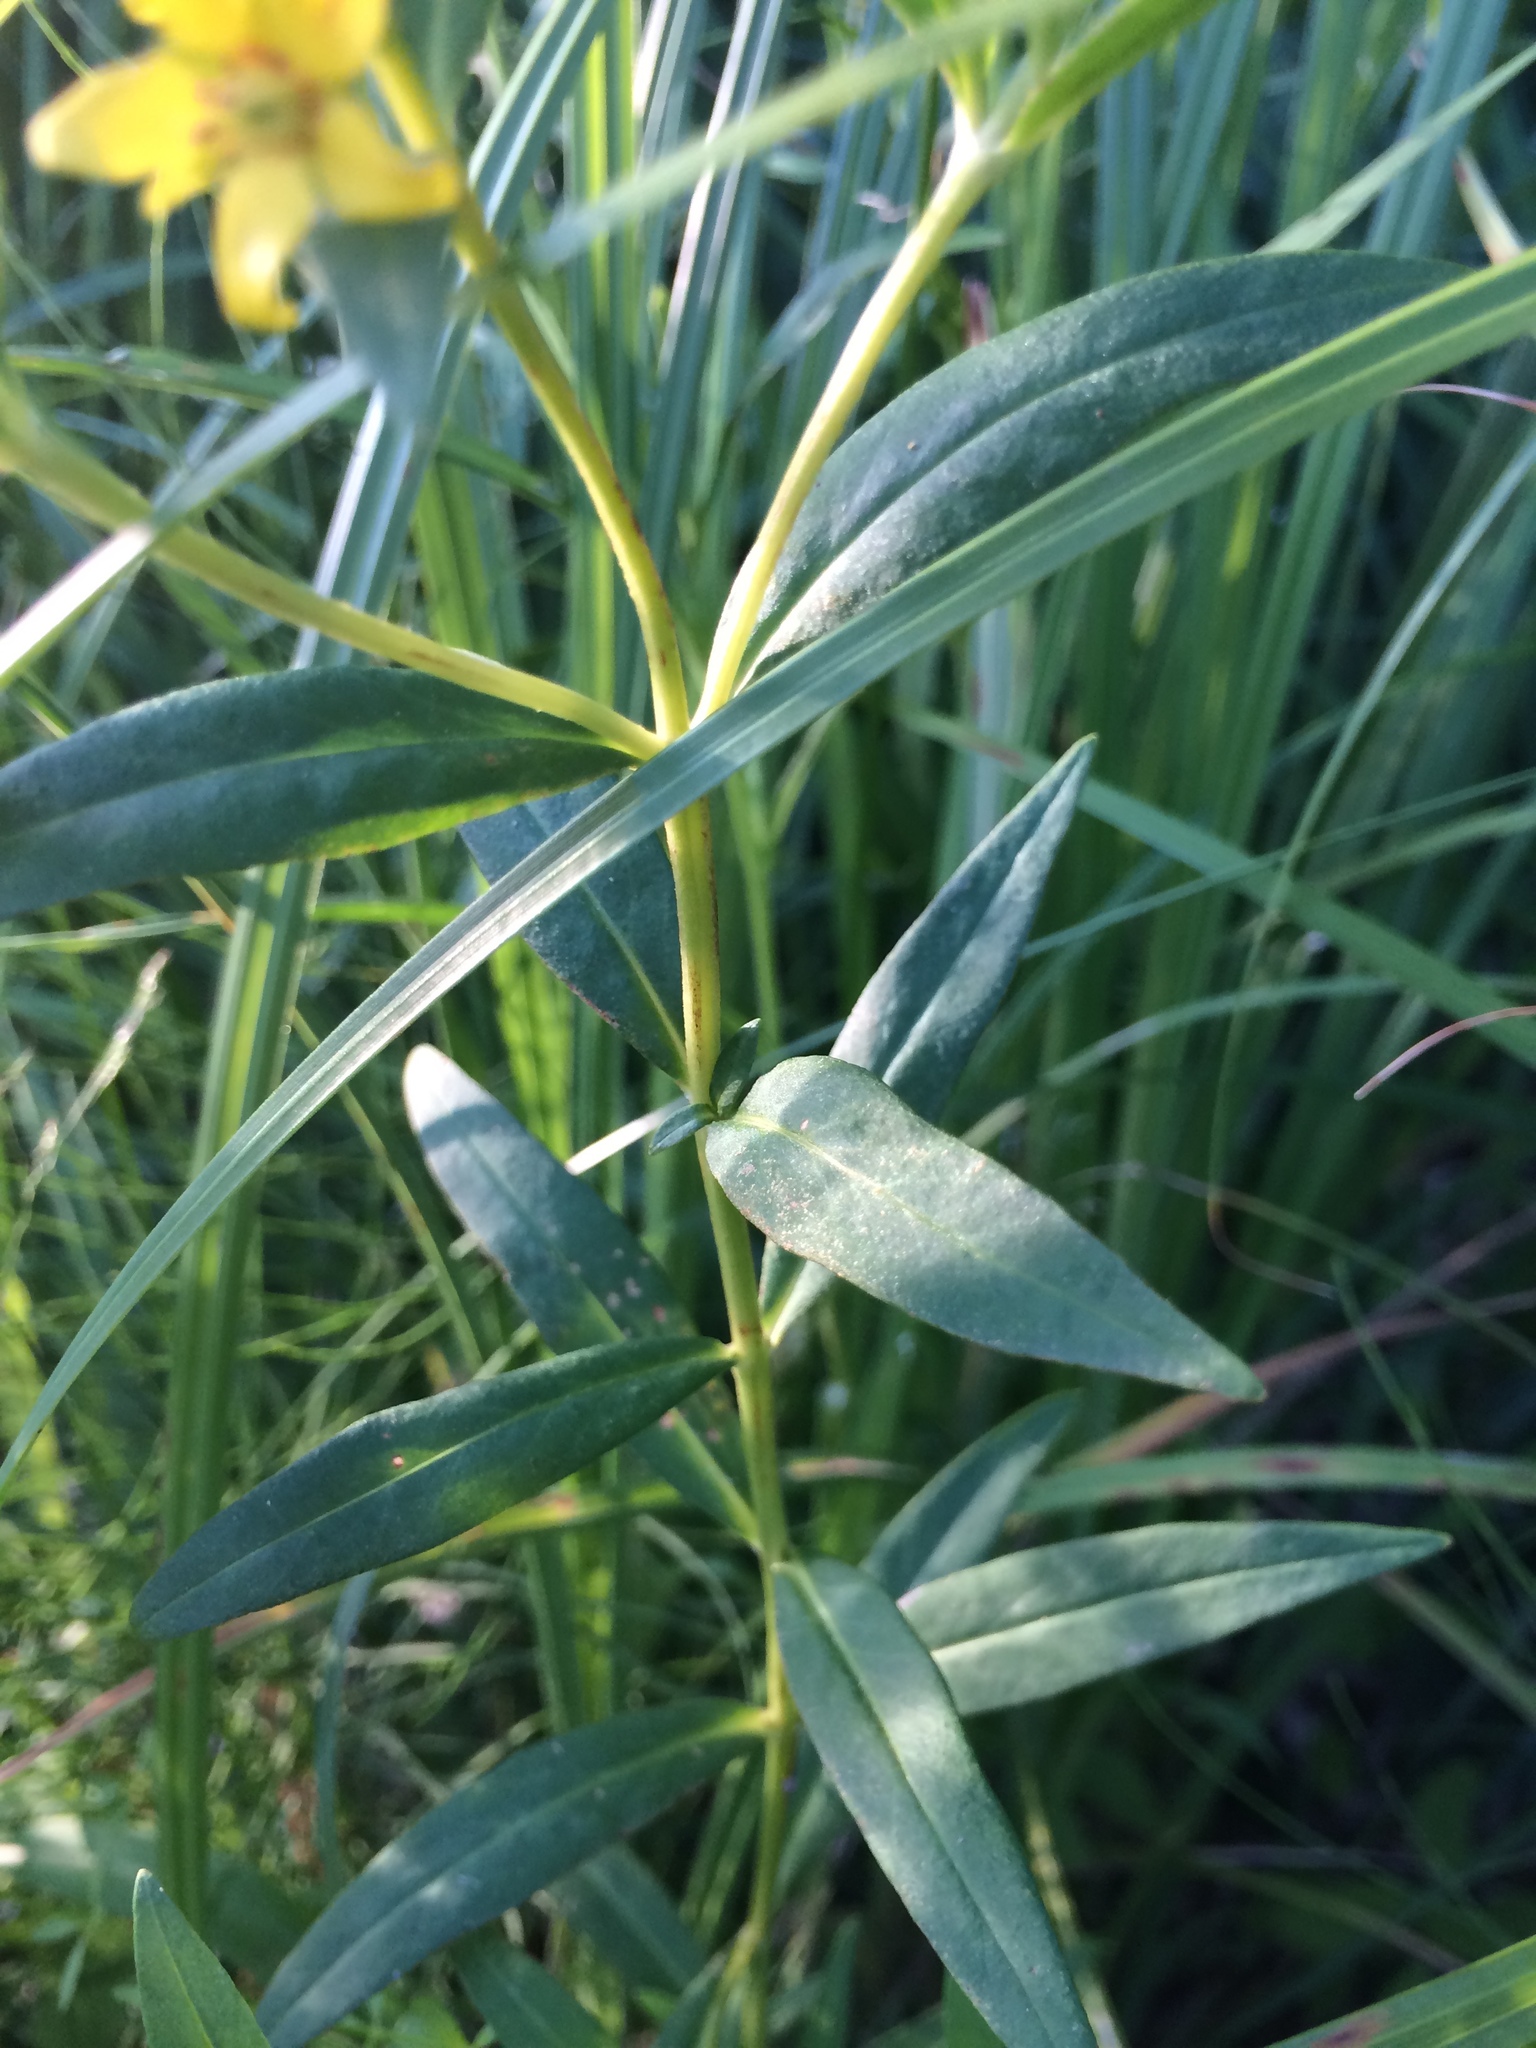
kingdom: Plantae
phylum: Tracheophyta
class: Magnoliopsida
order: Ericales
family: Primulaceae
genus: Lysimachia
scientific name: Lysimachia terrestris
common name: Lake loosestrife
